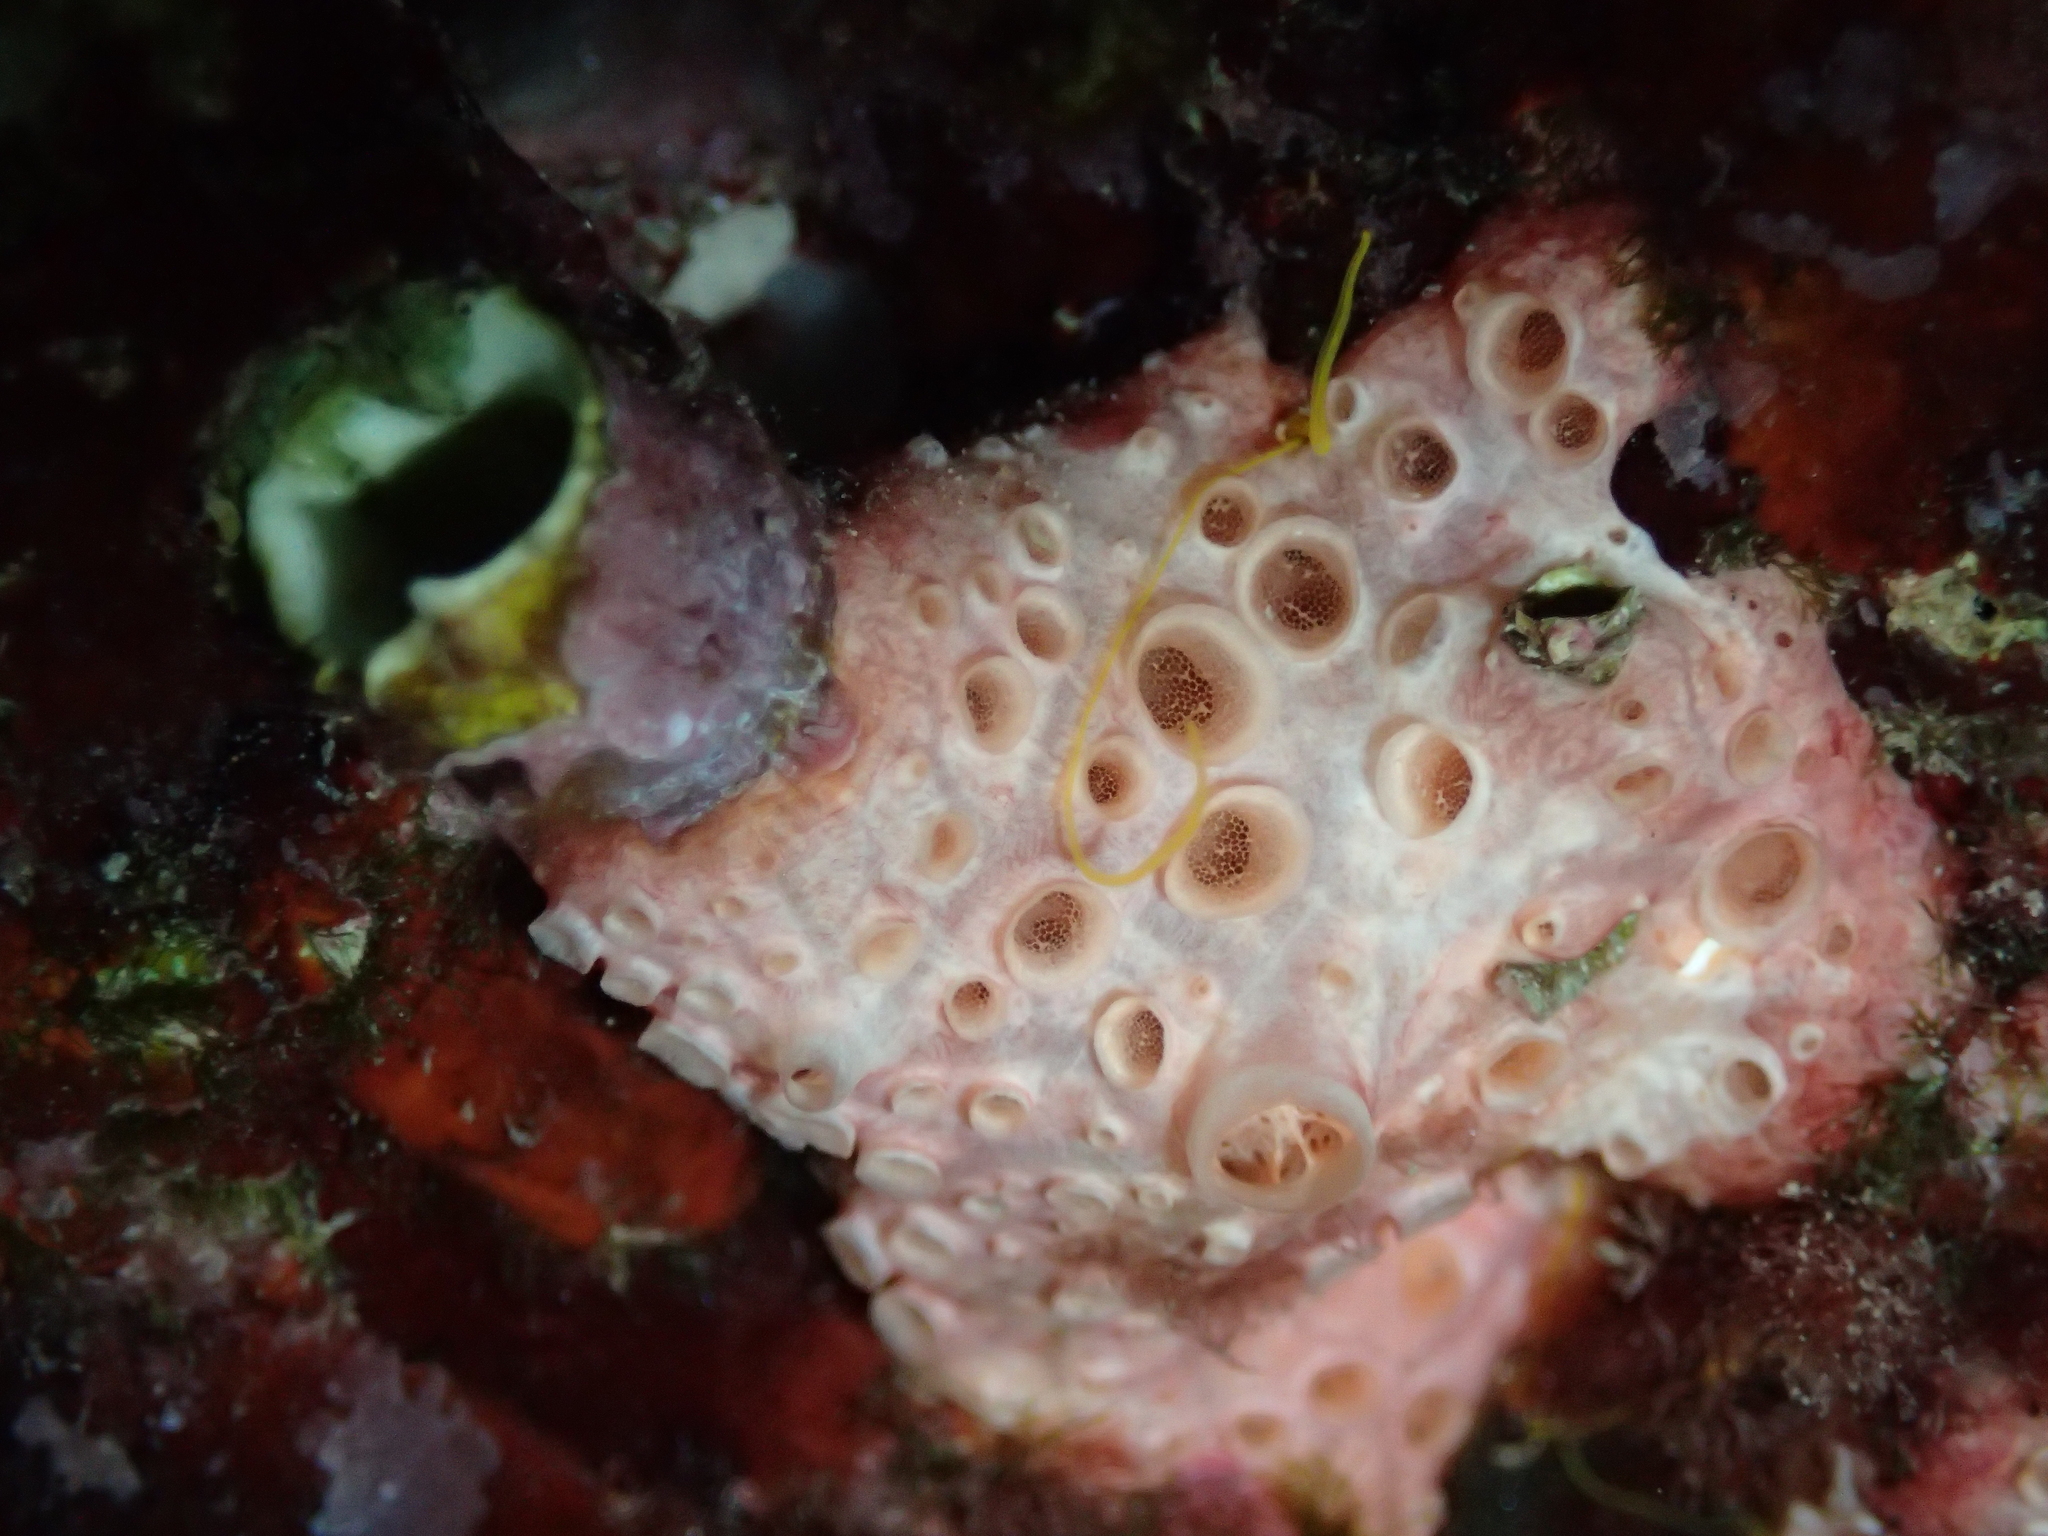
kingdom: Animalia
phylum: Porifera
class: Demospongiae
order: Poecilosclerida
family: Hymedesmiidae
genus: Hemimycale
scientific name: Hemimycale columella
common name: Crater sponge
